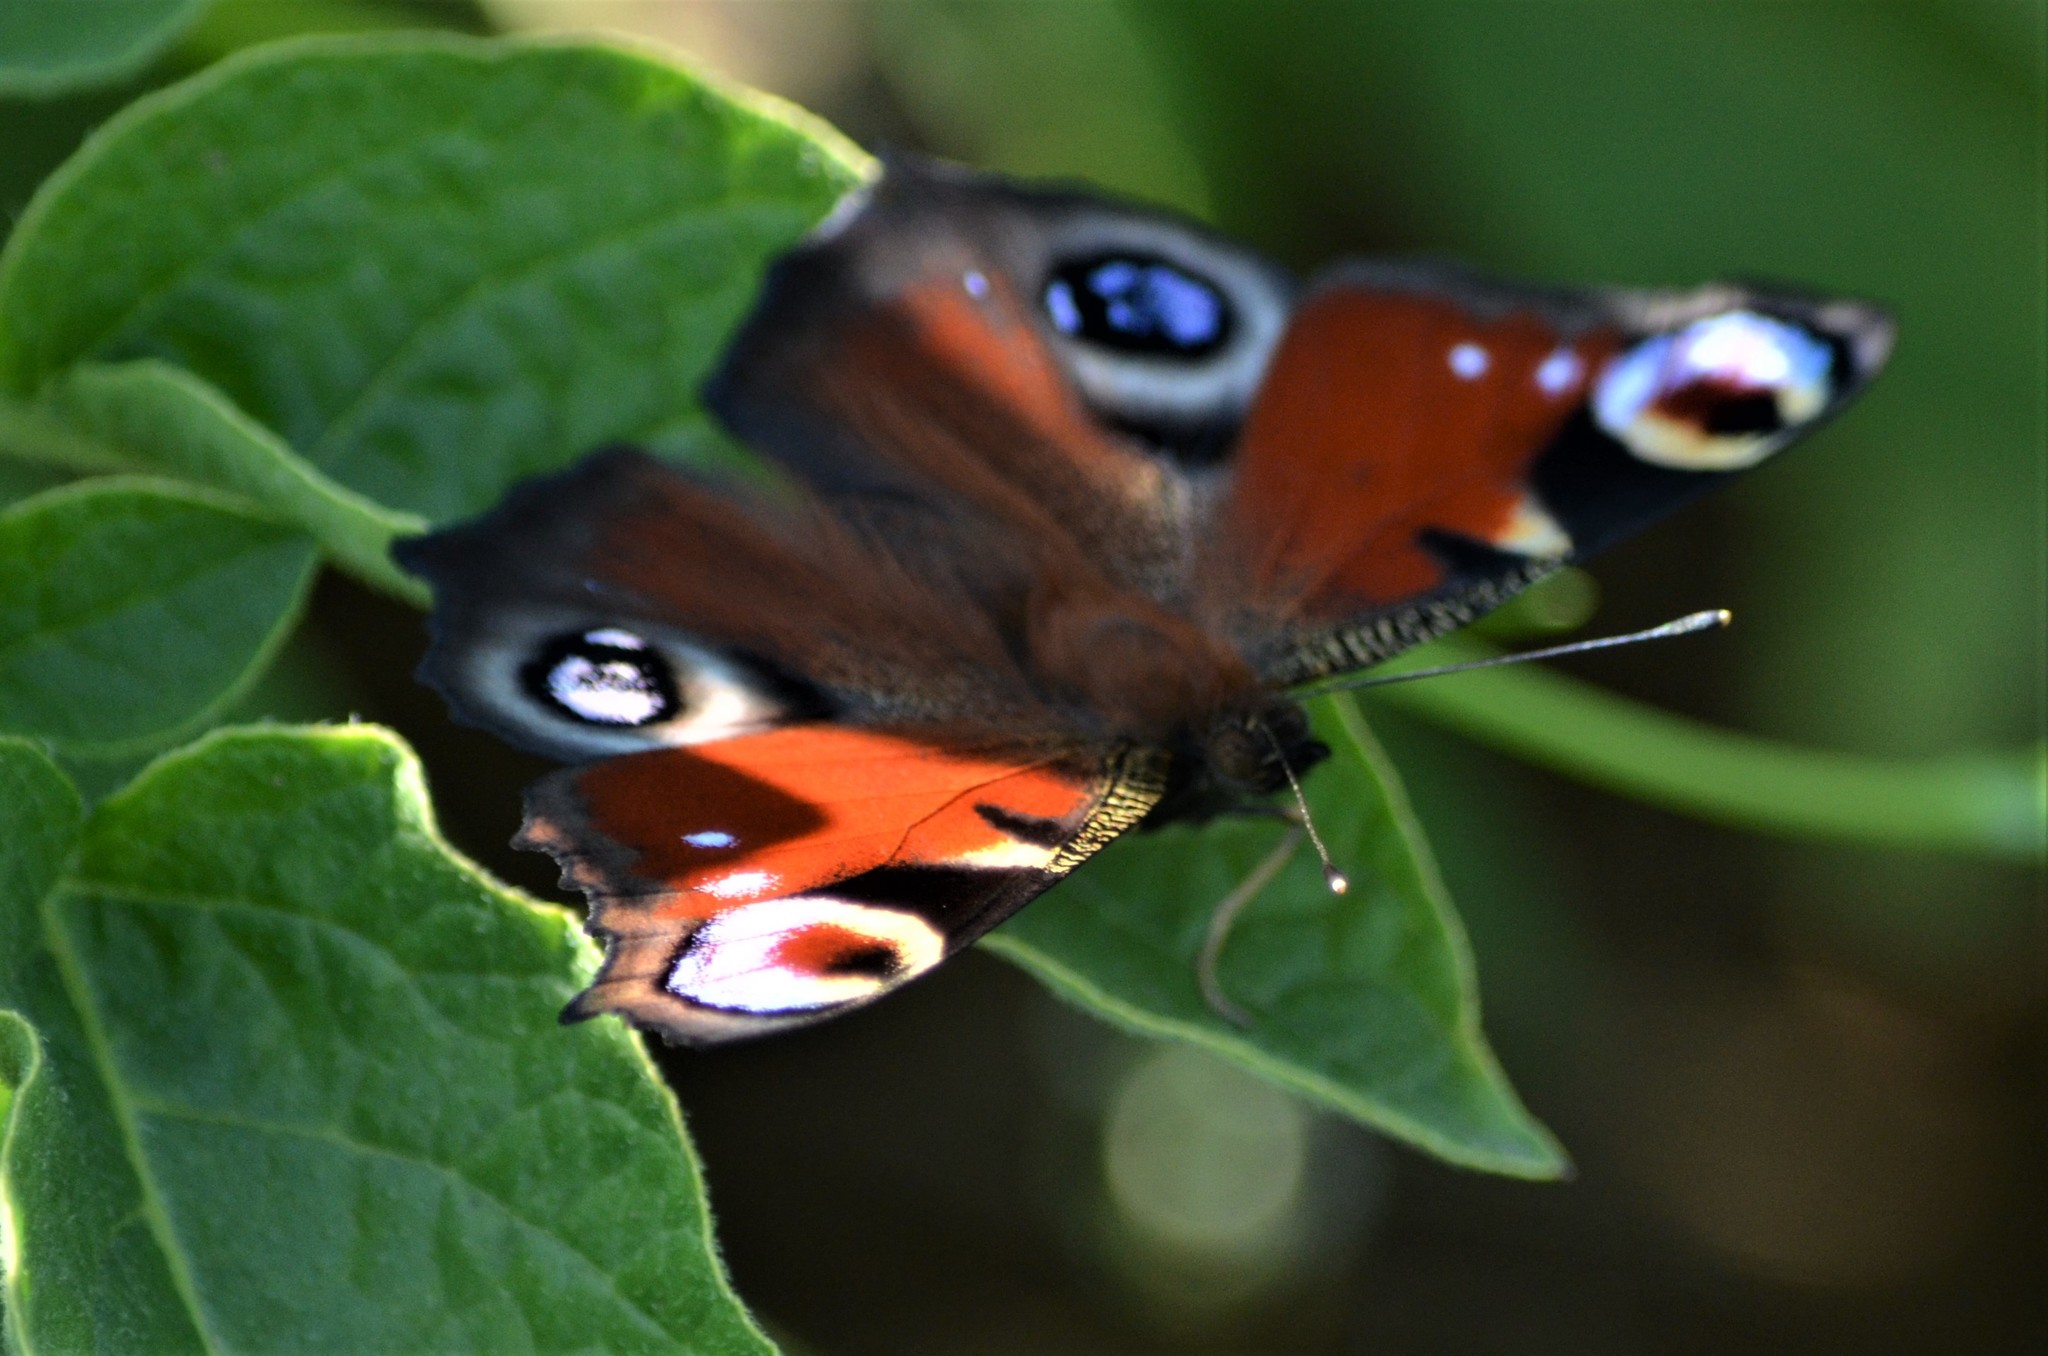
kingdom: Animalia
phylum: Arthropoda
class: Insecta
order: Lepidoptera
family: Nymphalidae
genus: Aglais
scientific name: Aglais io
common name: Peacock
